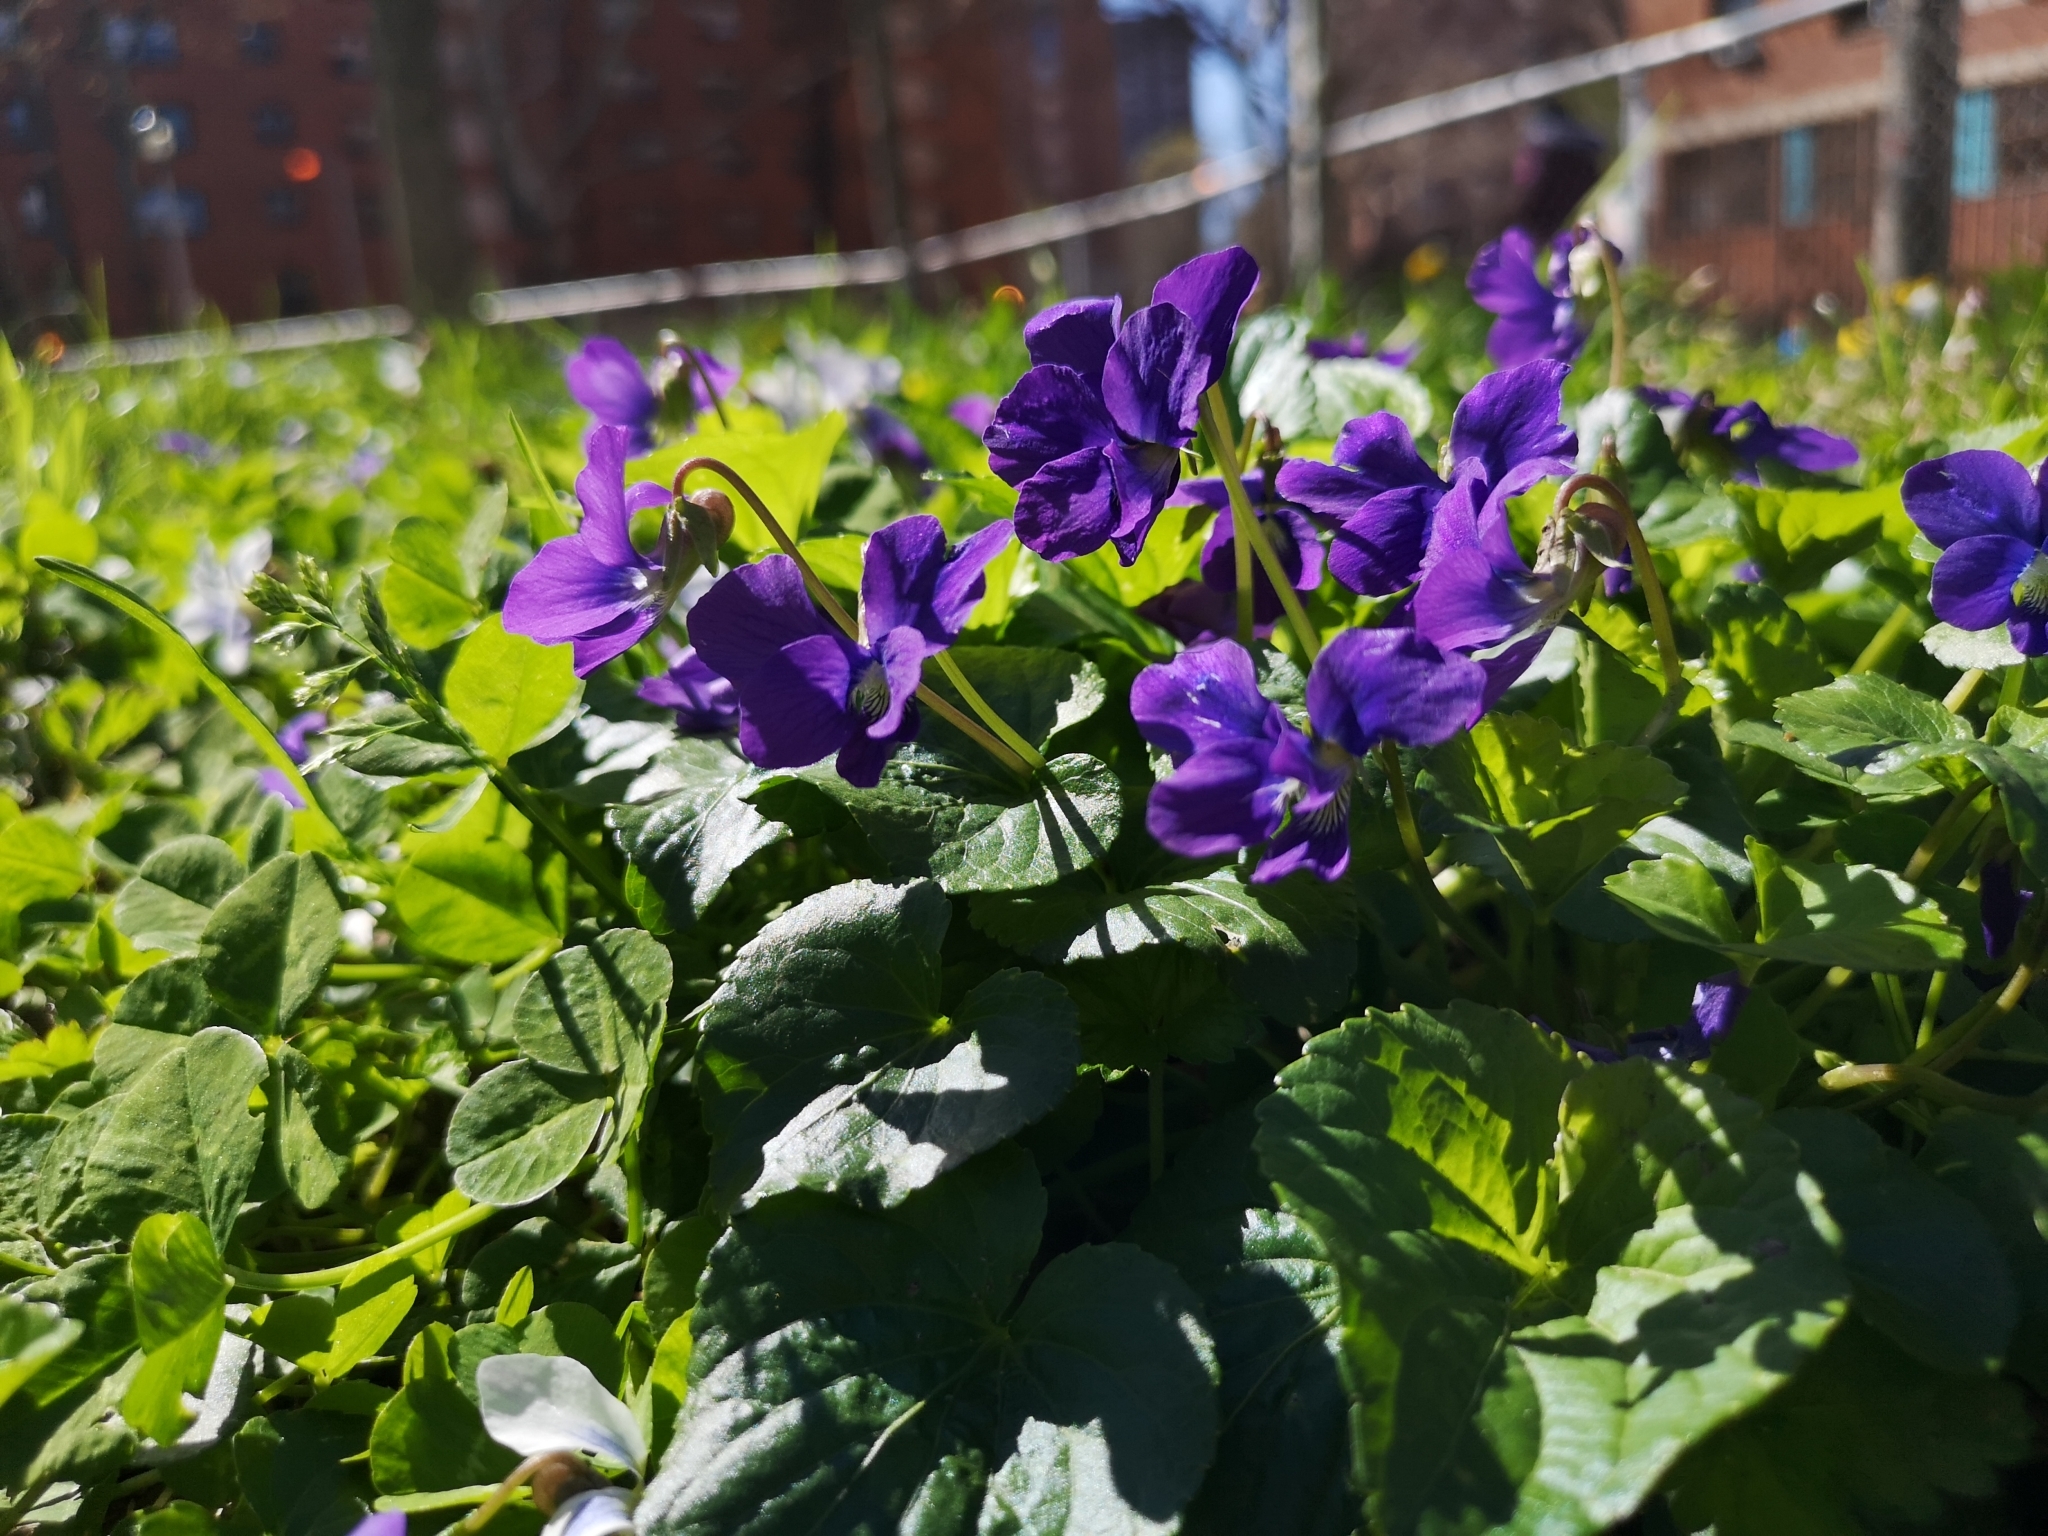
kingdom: Plantae
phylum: Tracheophyta
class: Magnoliopsida
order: Malpighiales
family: Violaceae
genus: Viola
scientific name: Viola sororia
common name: Dooryard violet
